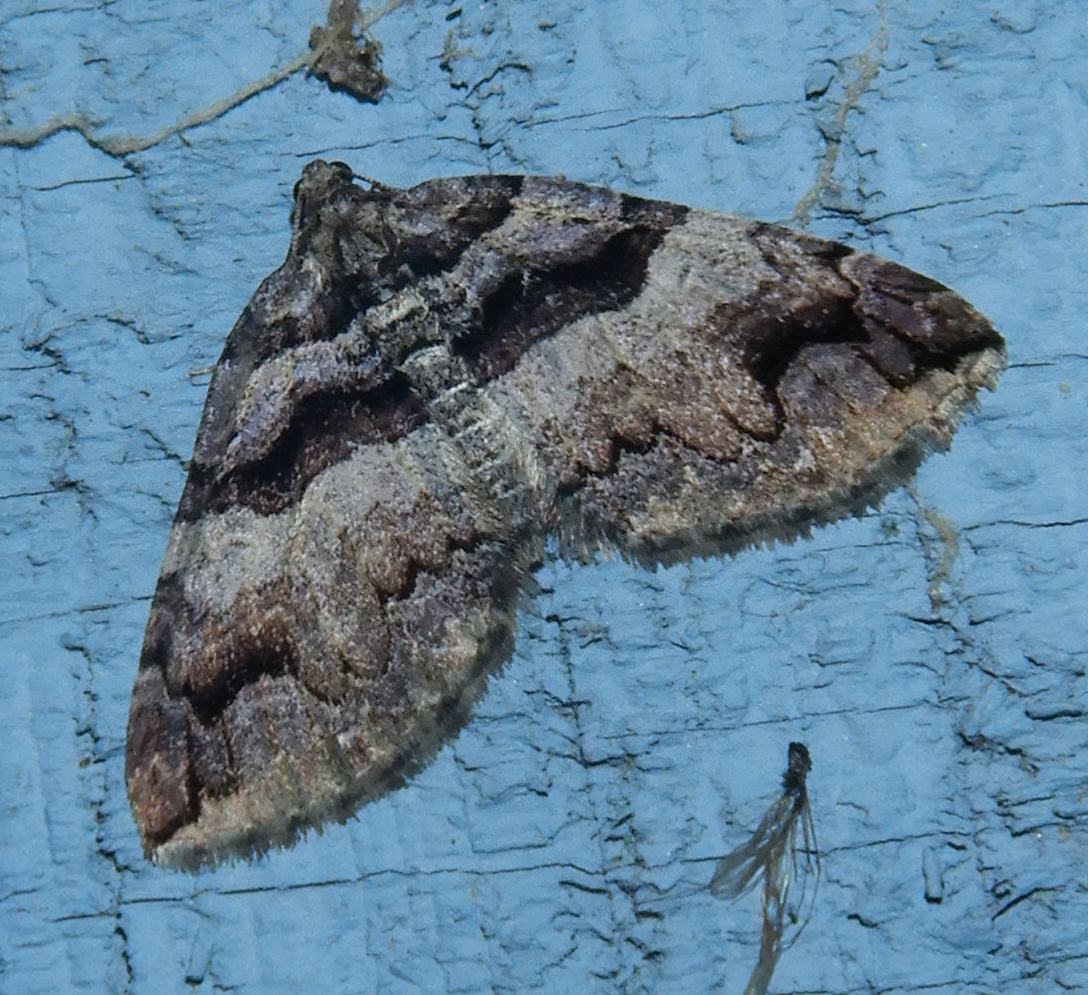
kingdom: Animalia
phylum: Arthropoda
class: Insecta
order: Lepidoptera
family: Geometridae
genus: Anticlea
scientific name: Anticlea vasiliata
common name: Variable carpet
